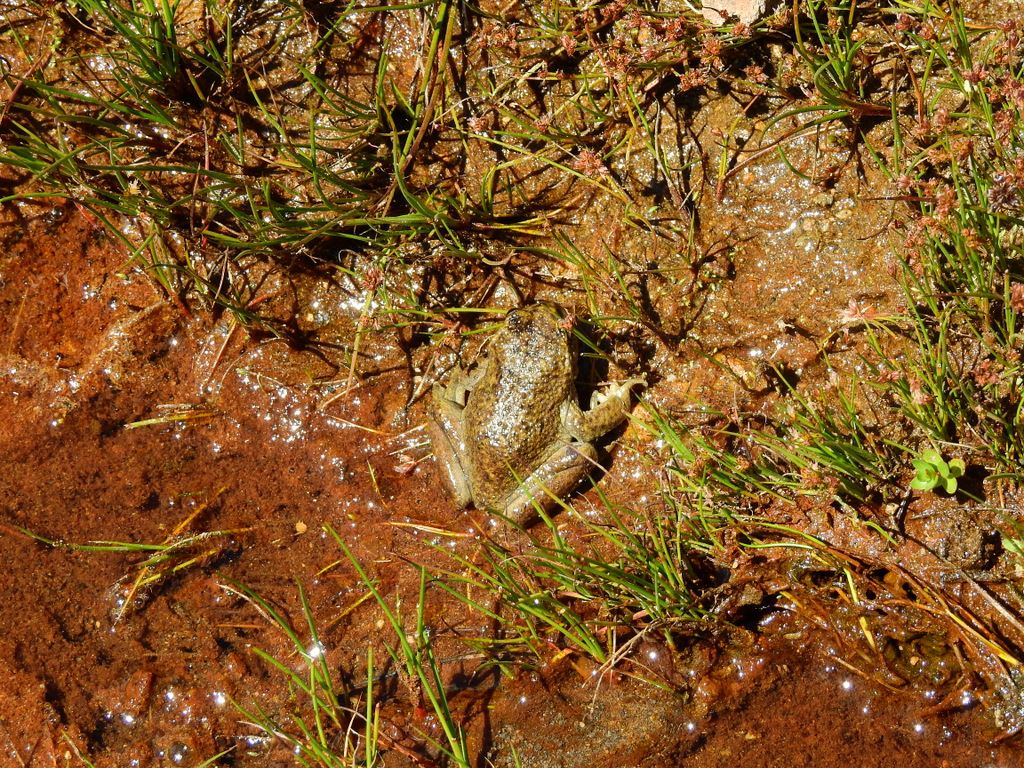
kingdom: Animalia
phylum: Chordata
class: Amphibia
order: Anura
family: Alsodidae
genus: Alsodes
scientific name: Alsodes pehuenche
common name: Pehuenche spiny-chest frog
